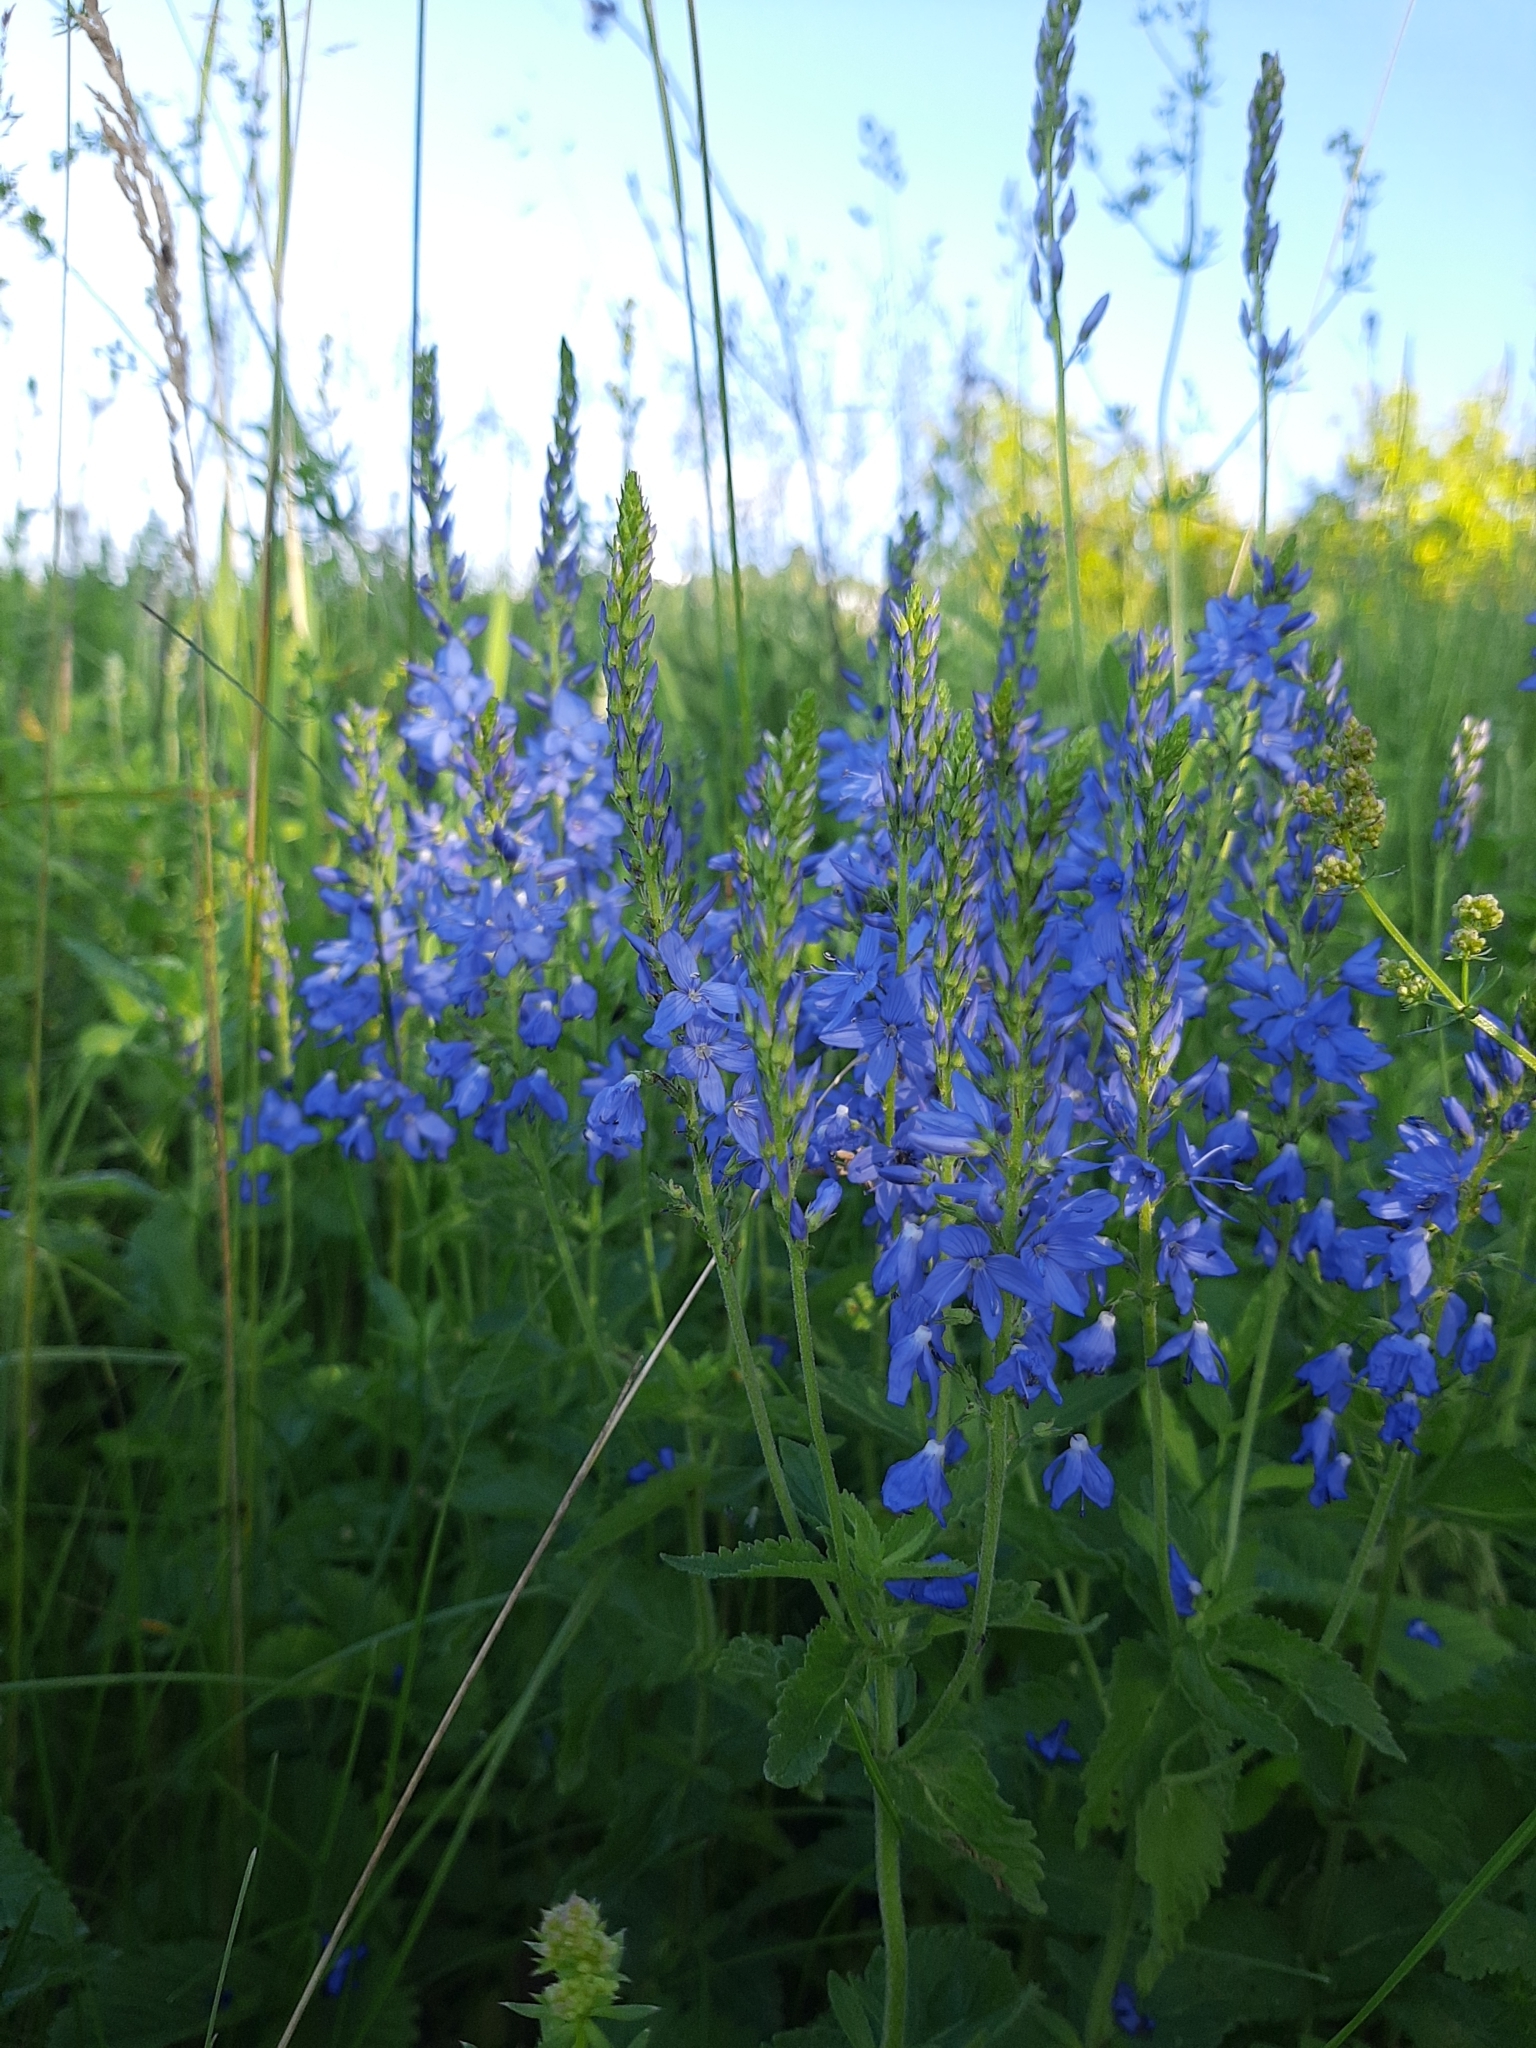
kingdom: Plantae
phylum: Tracheophyta
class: Magnoliopsida
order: Lamiales
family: Plantaginaceae
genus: Veronica
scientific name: Veronica teucrium
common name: Large speedwell
